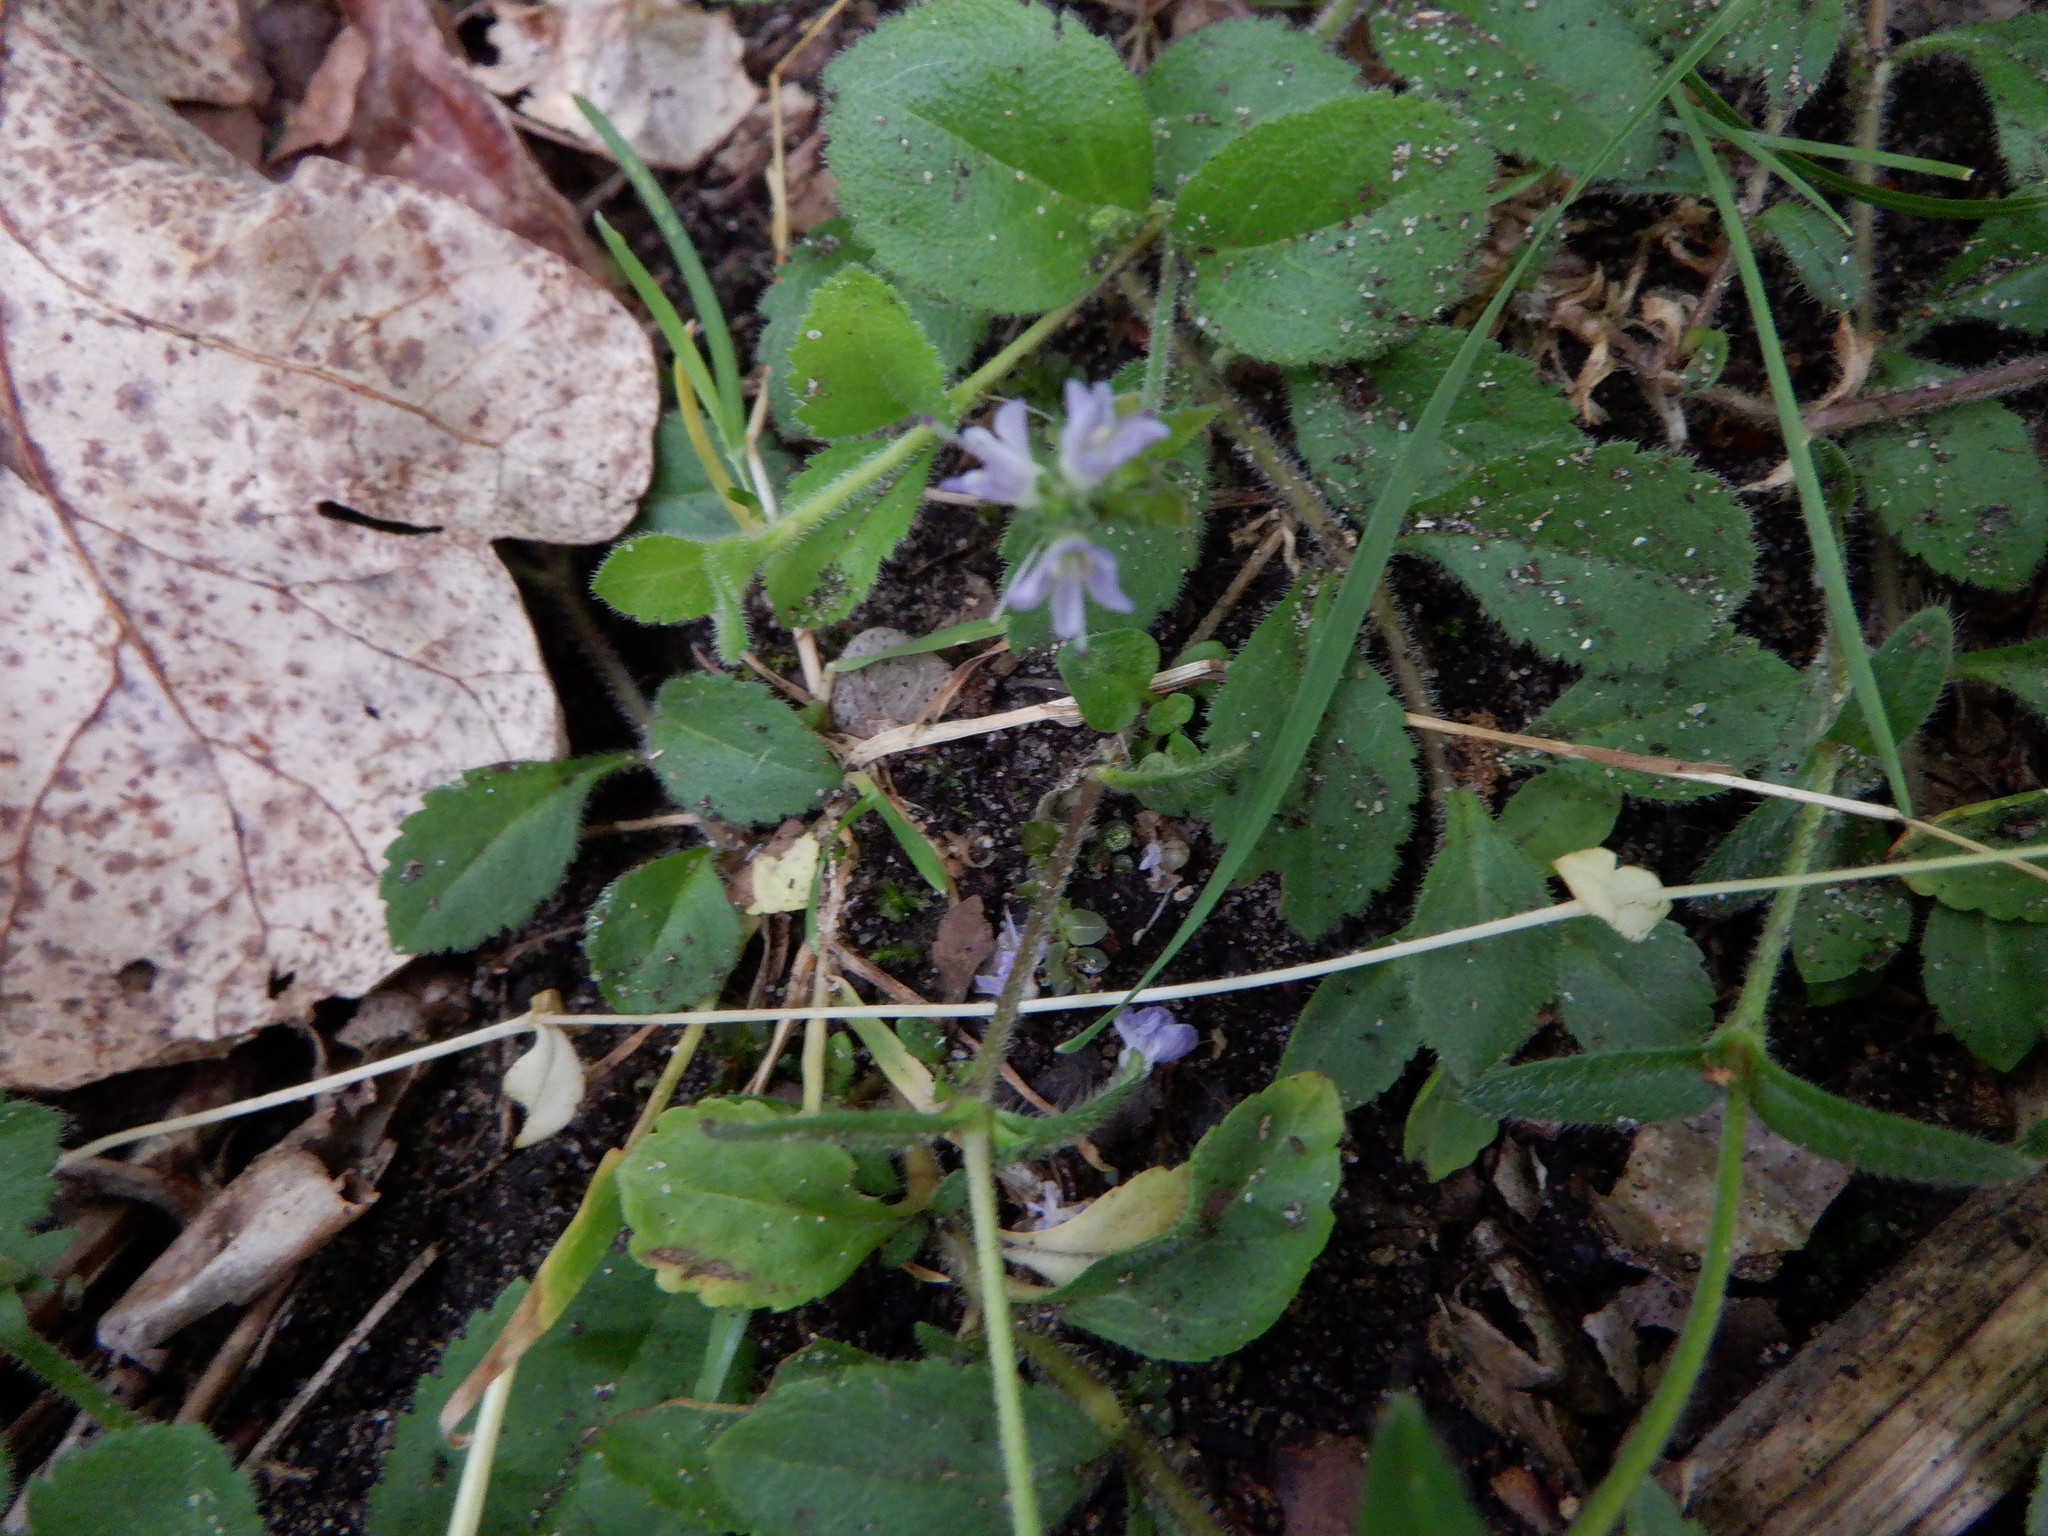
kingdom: Plantae
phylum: Tracheophyta
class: Magnoliopsida
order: Lamiales
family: Plantaginaceae
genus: Veronica
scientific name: Veronica officinalis
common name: Common speedwell
